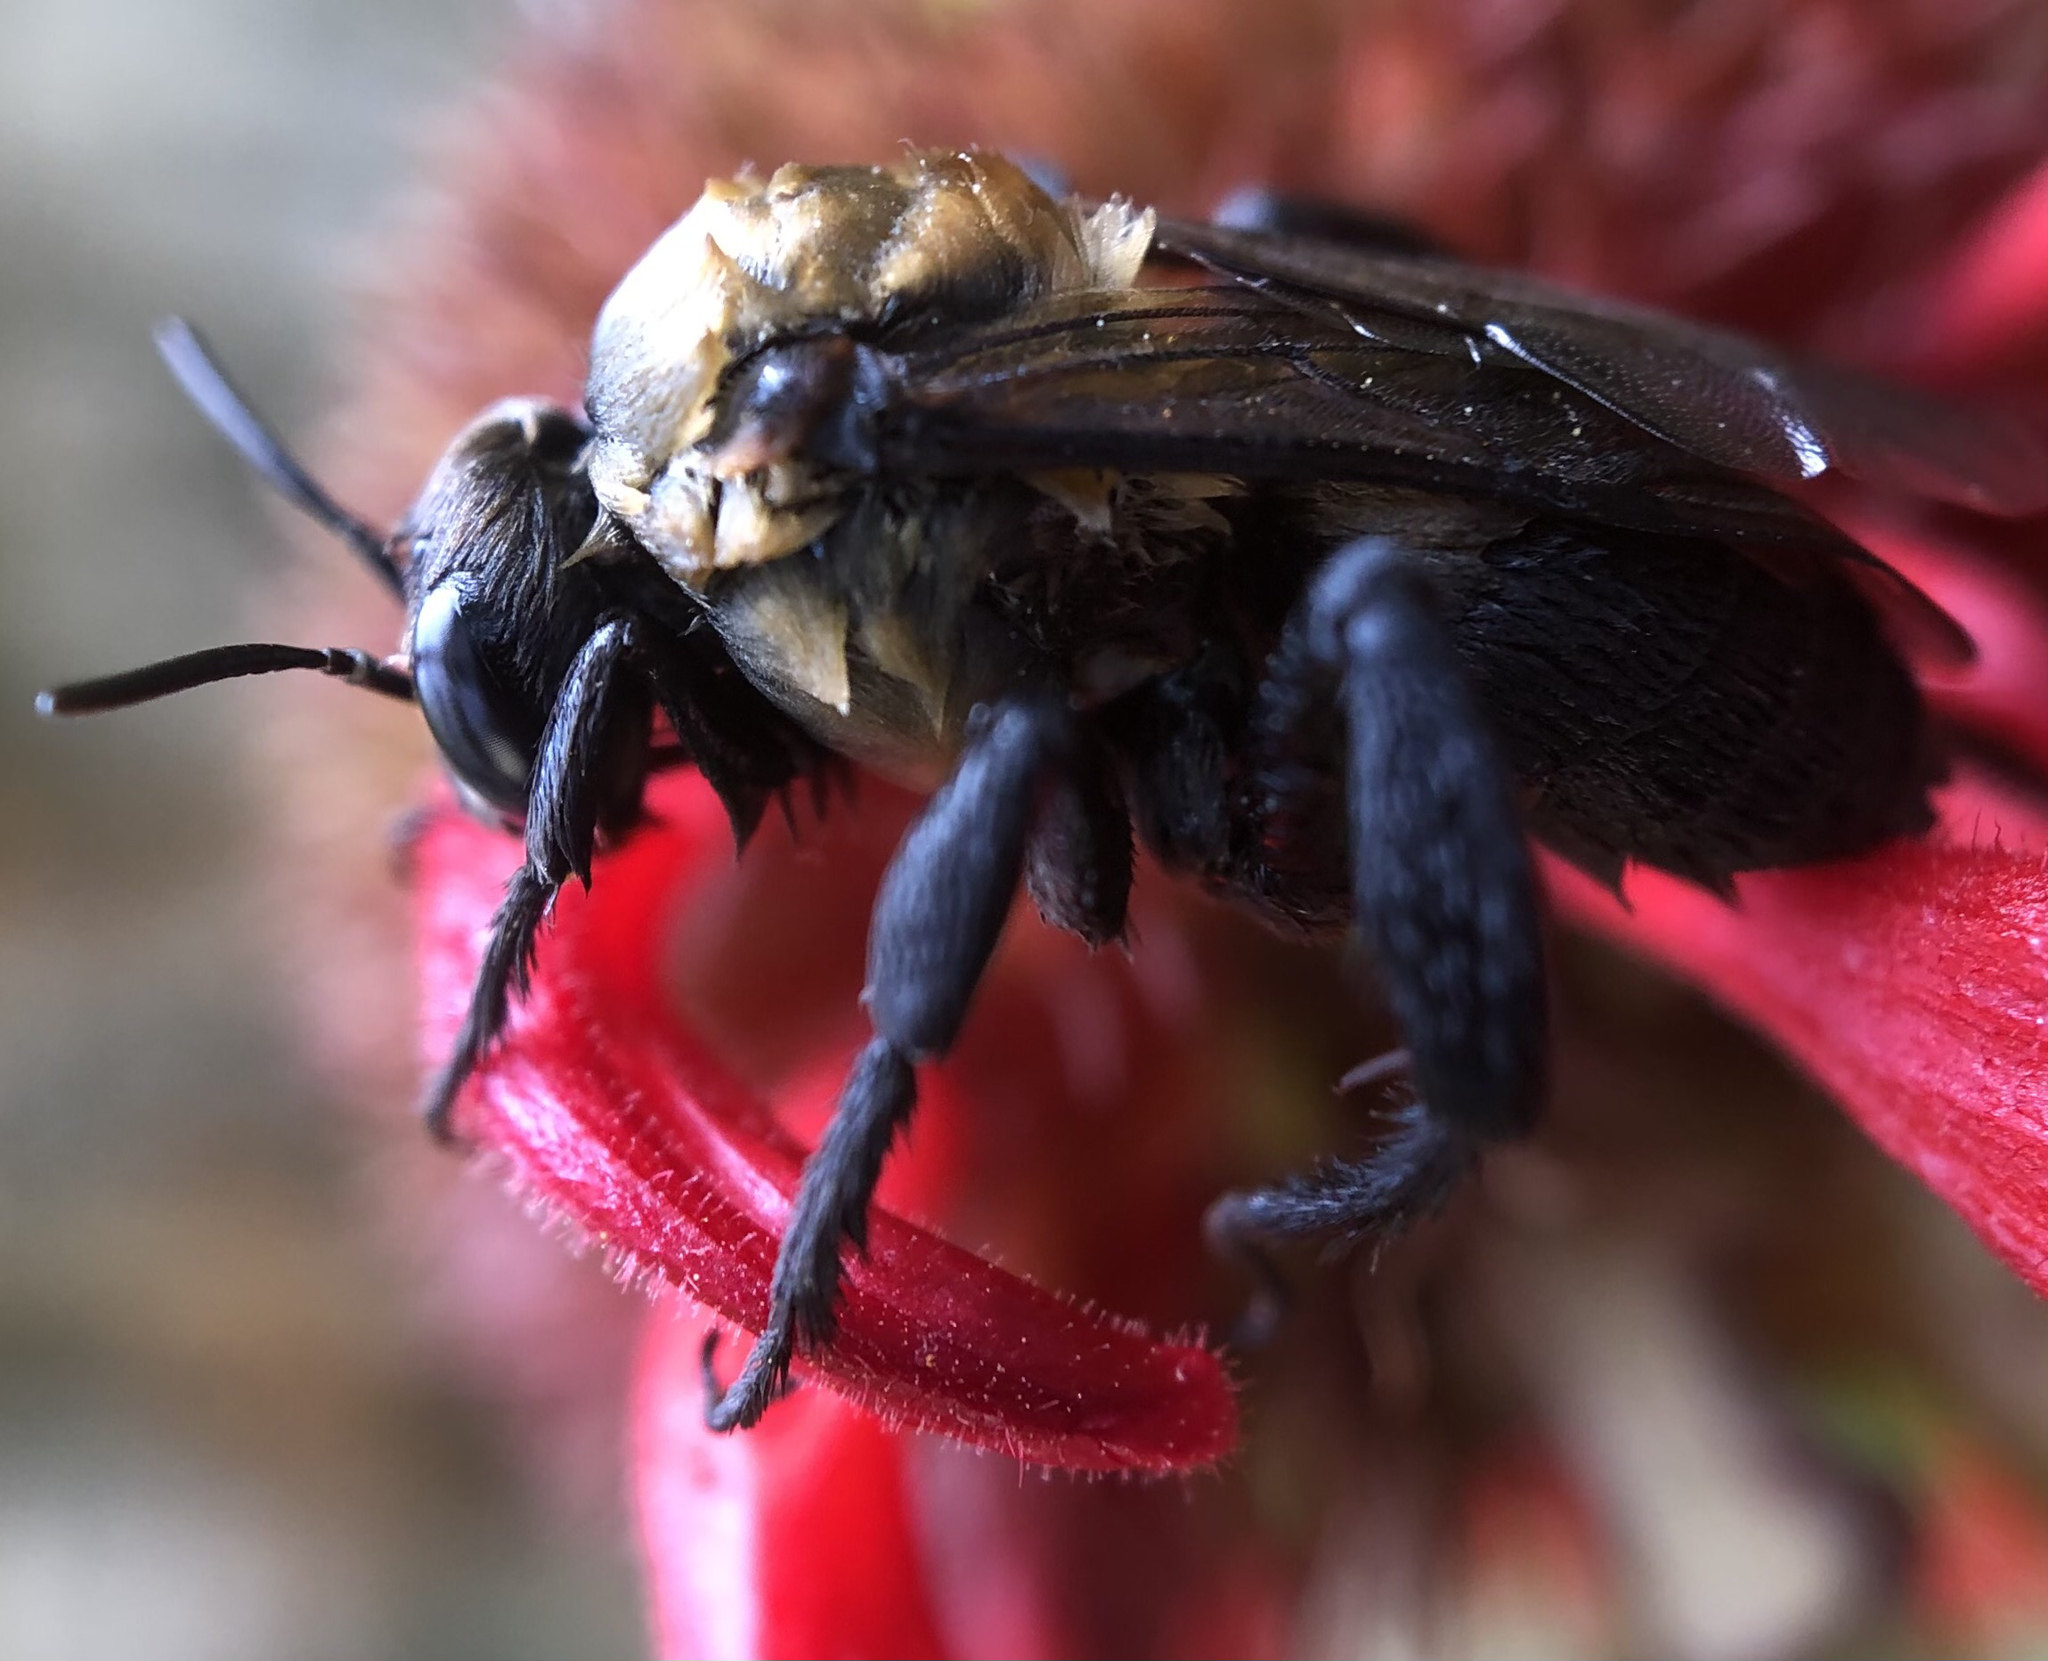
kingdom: Animalia
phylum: Arthropoda
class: Insecta
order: Hymenoptera
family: Apidae
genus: Ptilothrix
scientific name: Ptilothrix bombiformis
